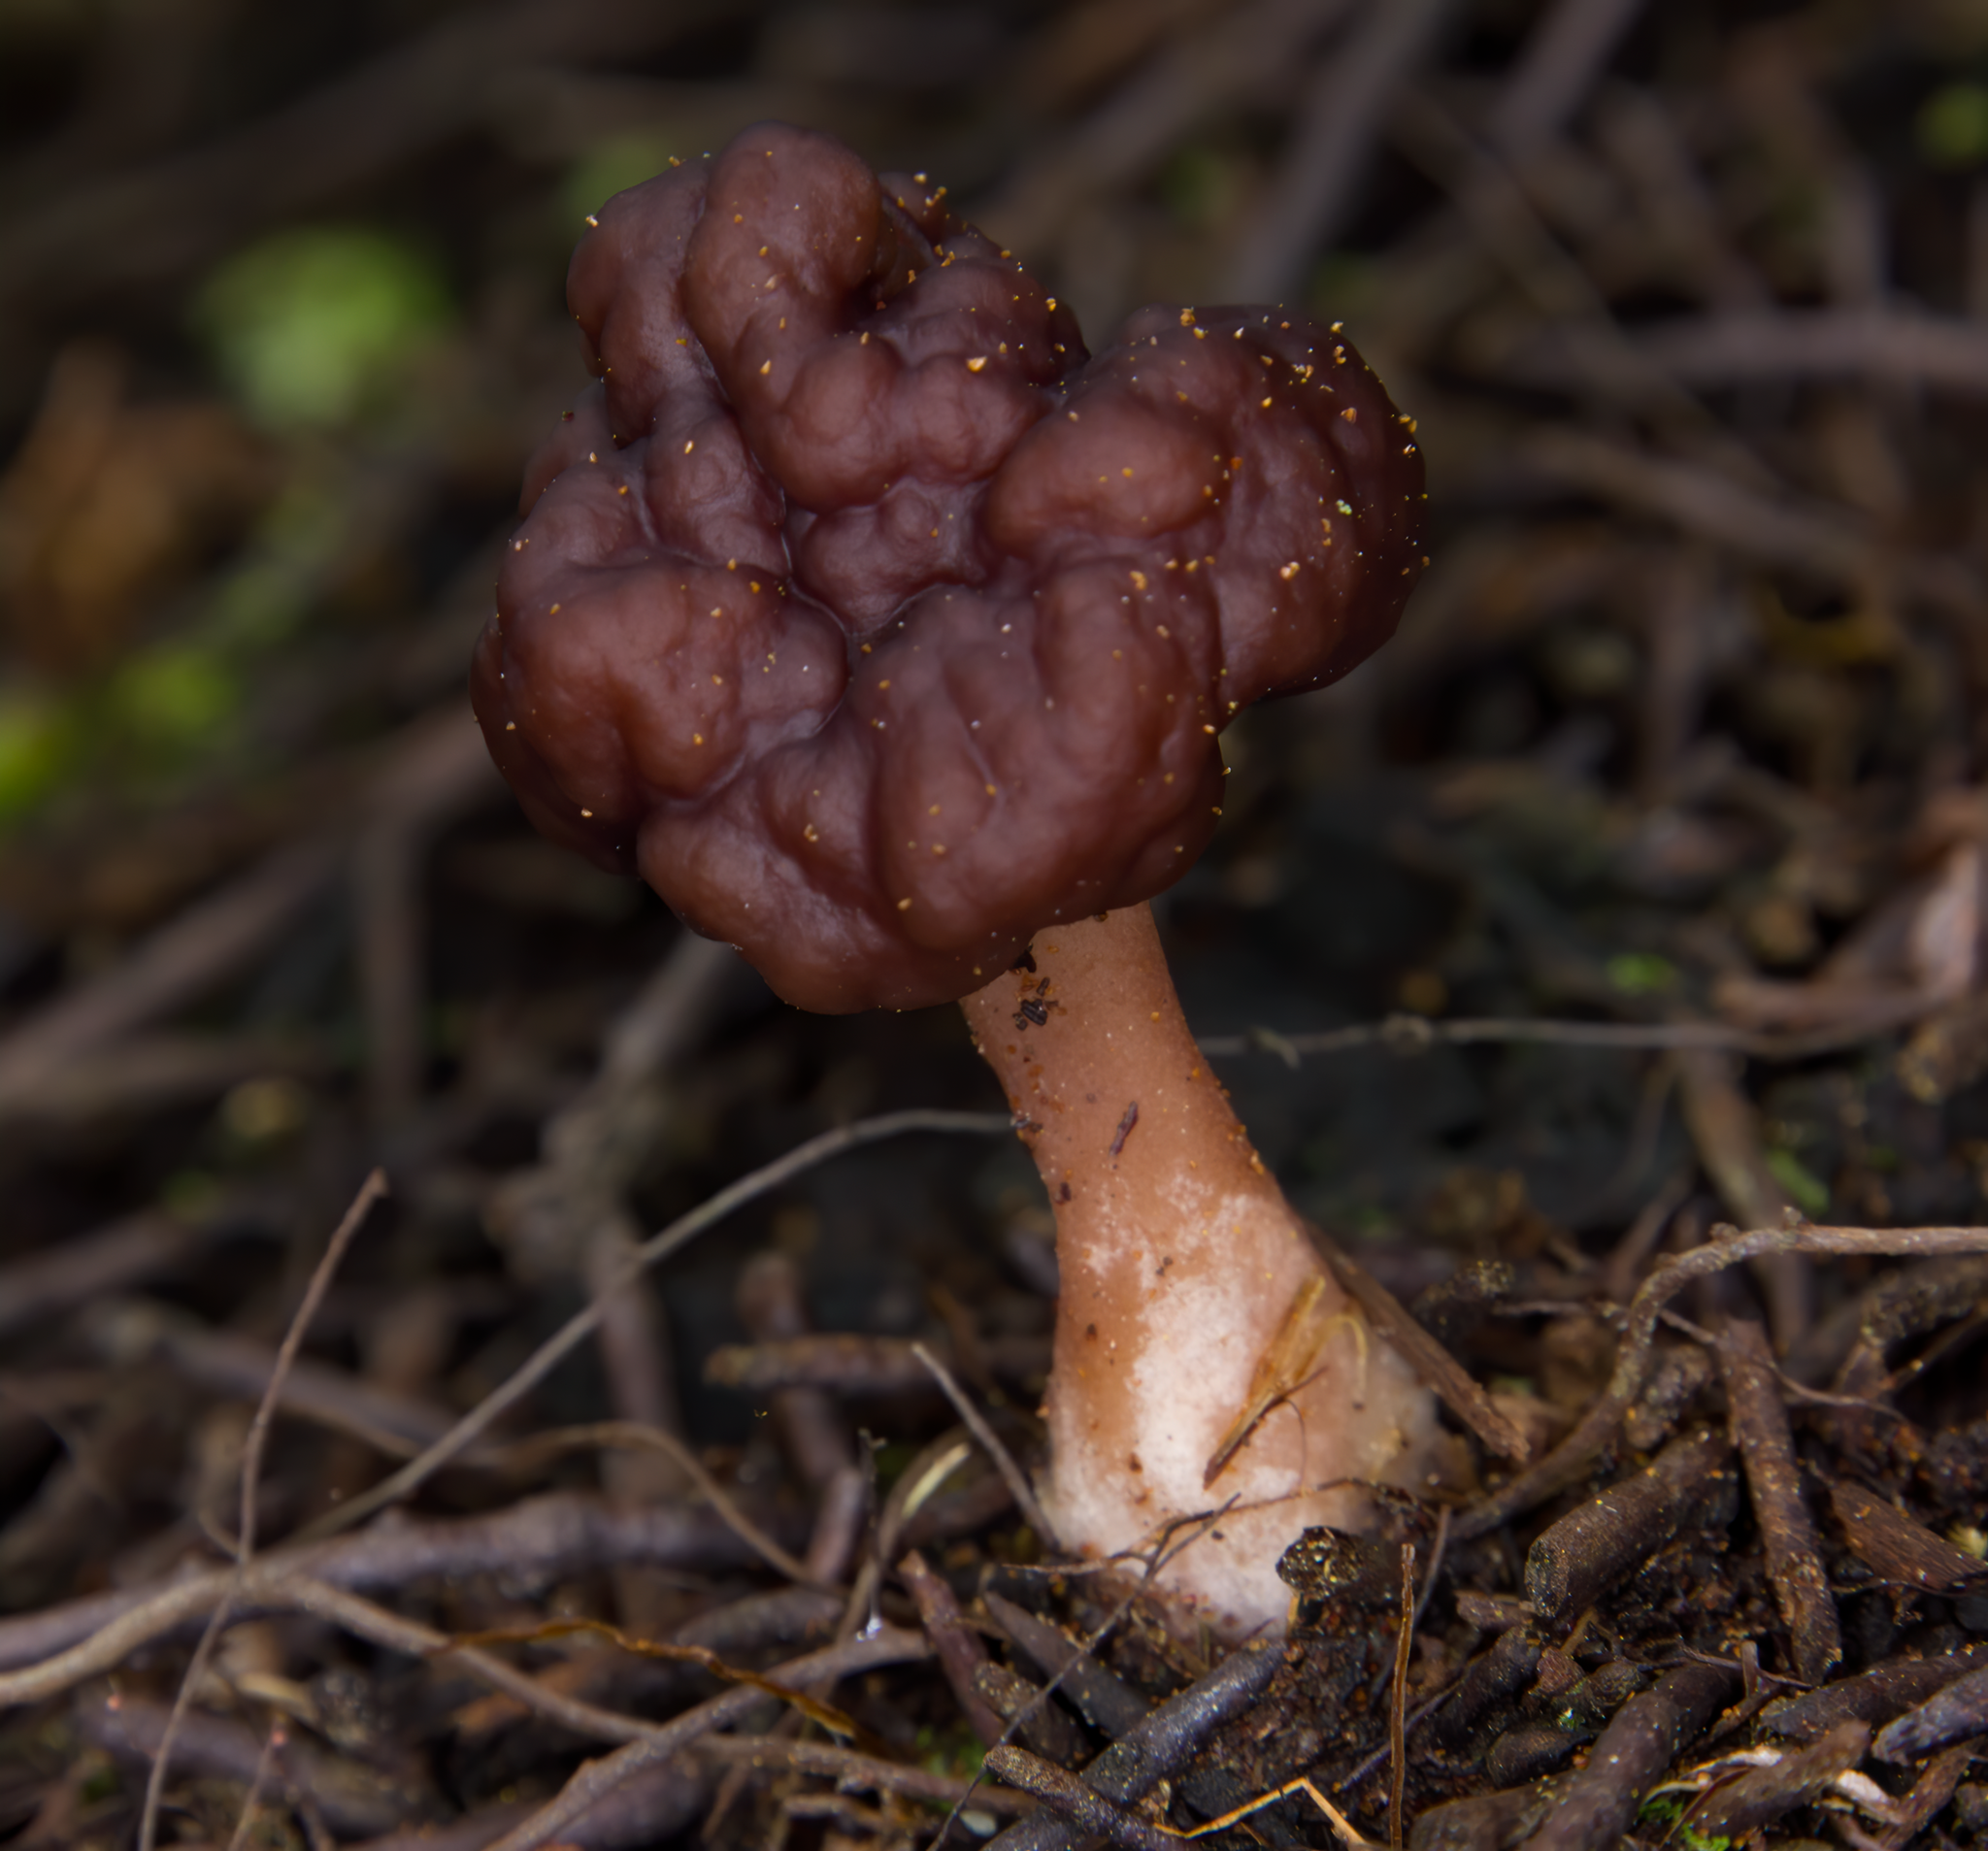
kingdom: Fungi
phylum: Ascomycota
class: Pezizomycetes
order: Pezizales
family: Discinaceae
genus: Gyromitra
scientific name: Gyromitra tasmanica
